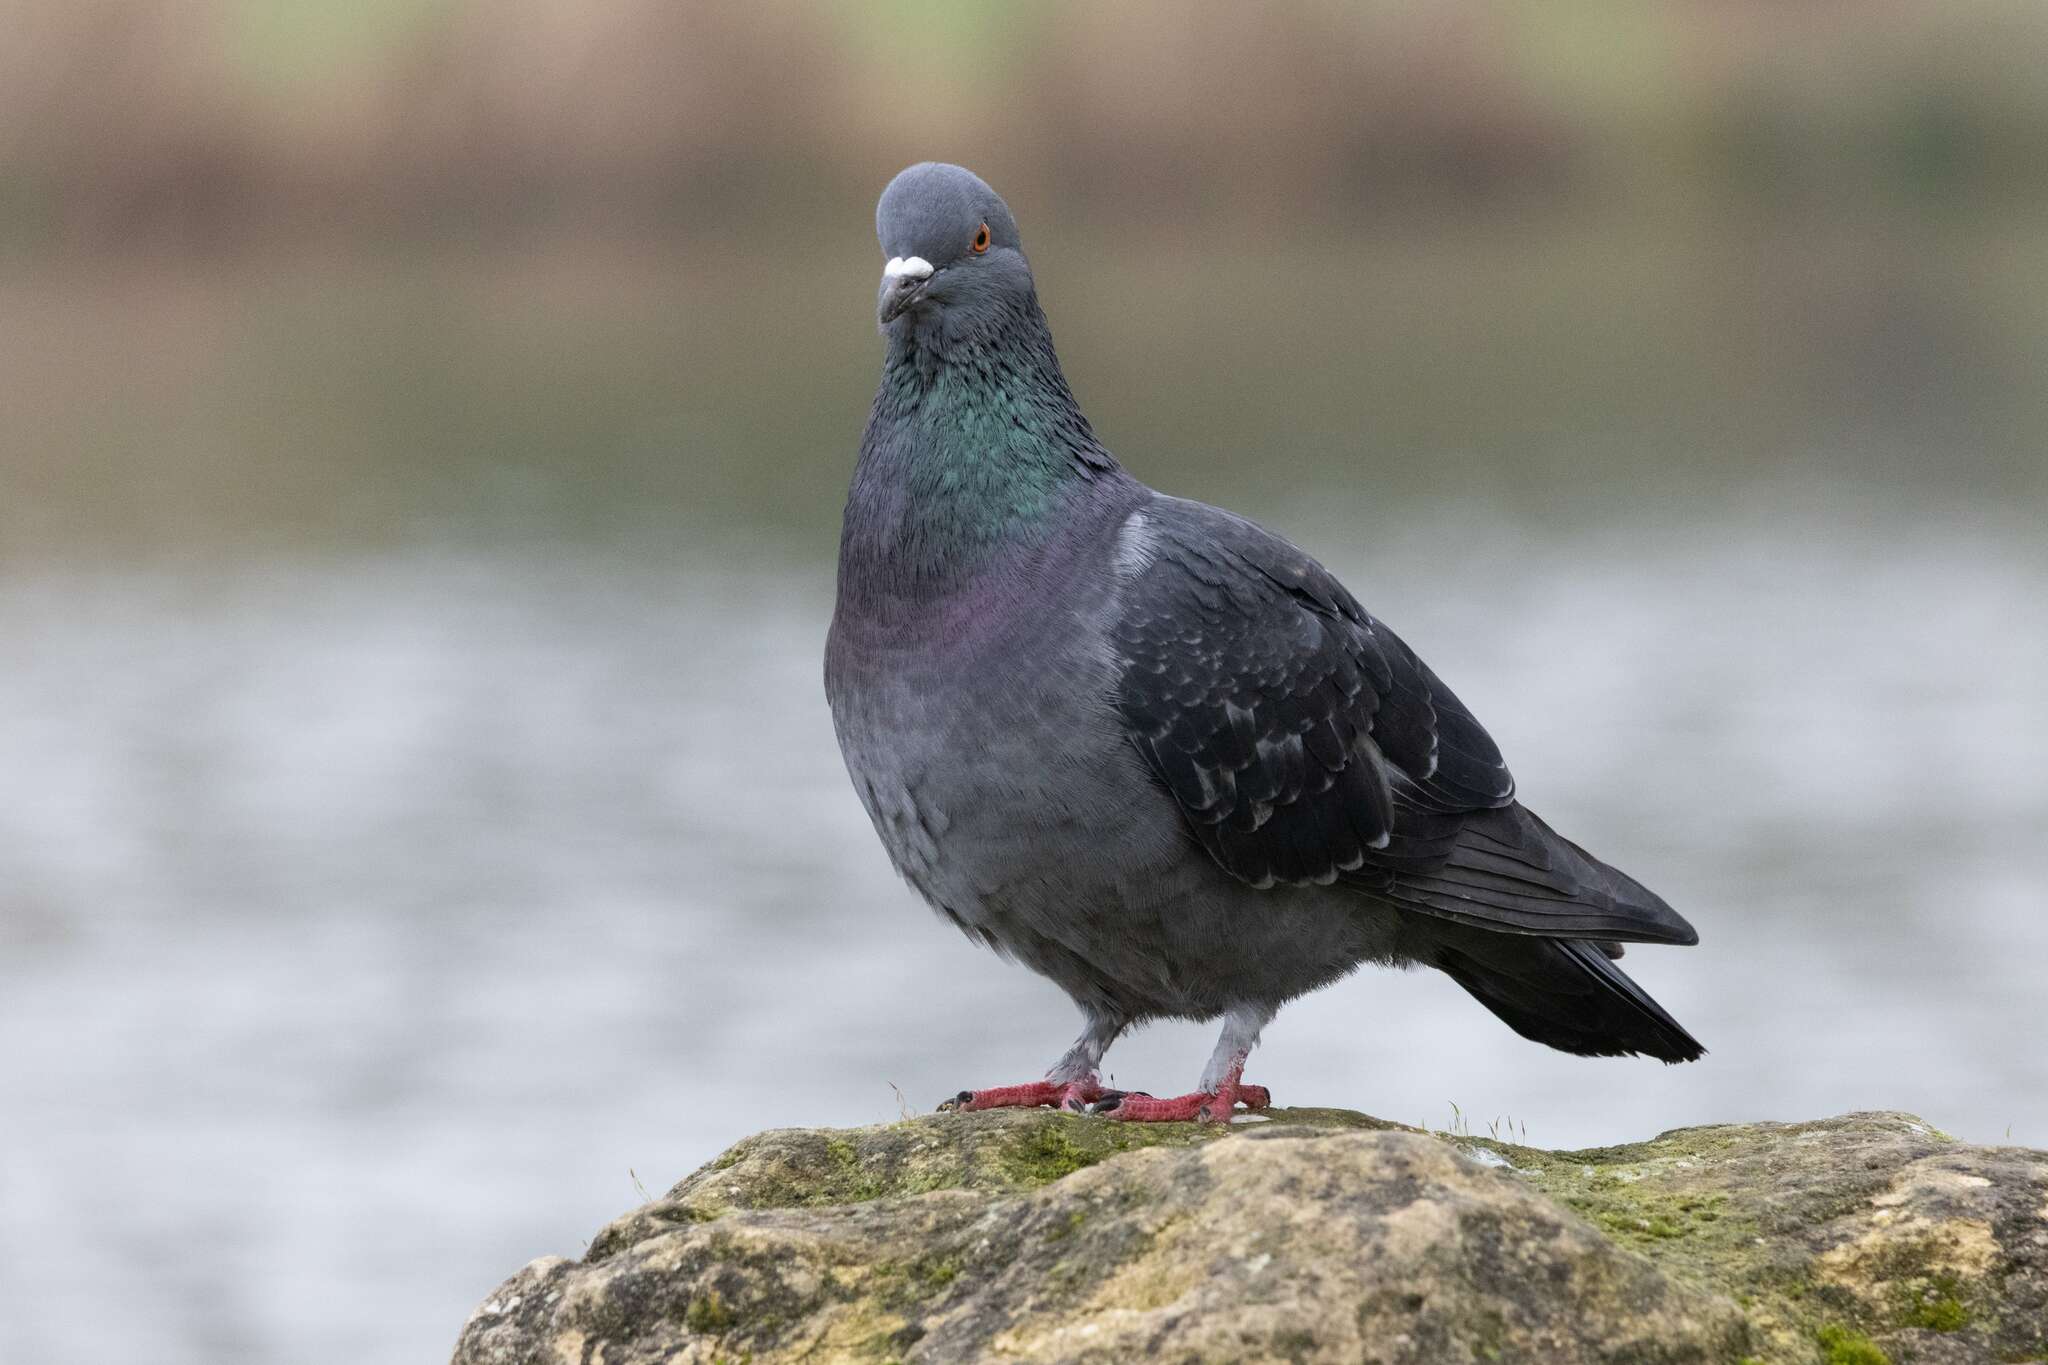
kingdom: Animalia
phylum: Chordata
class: Aves
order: Columbiformes
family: Columbidae
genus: Columba
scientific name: Columba livia
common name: Rock pigeon
